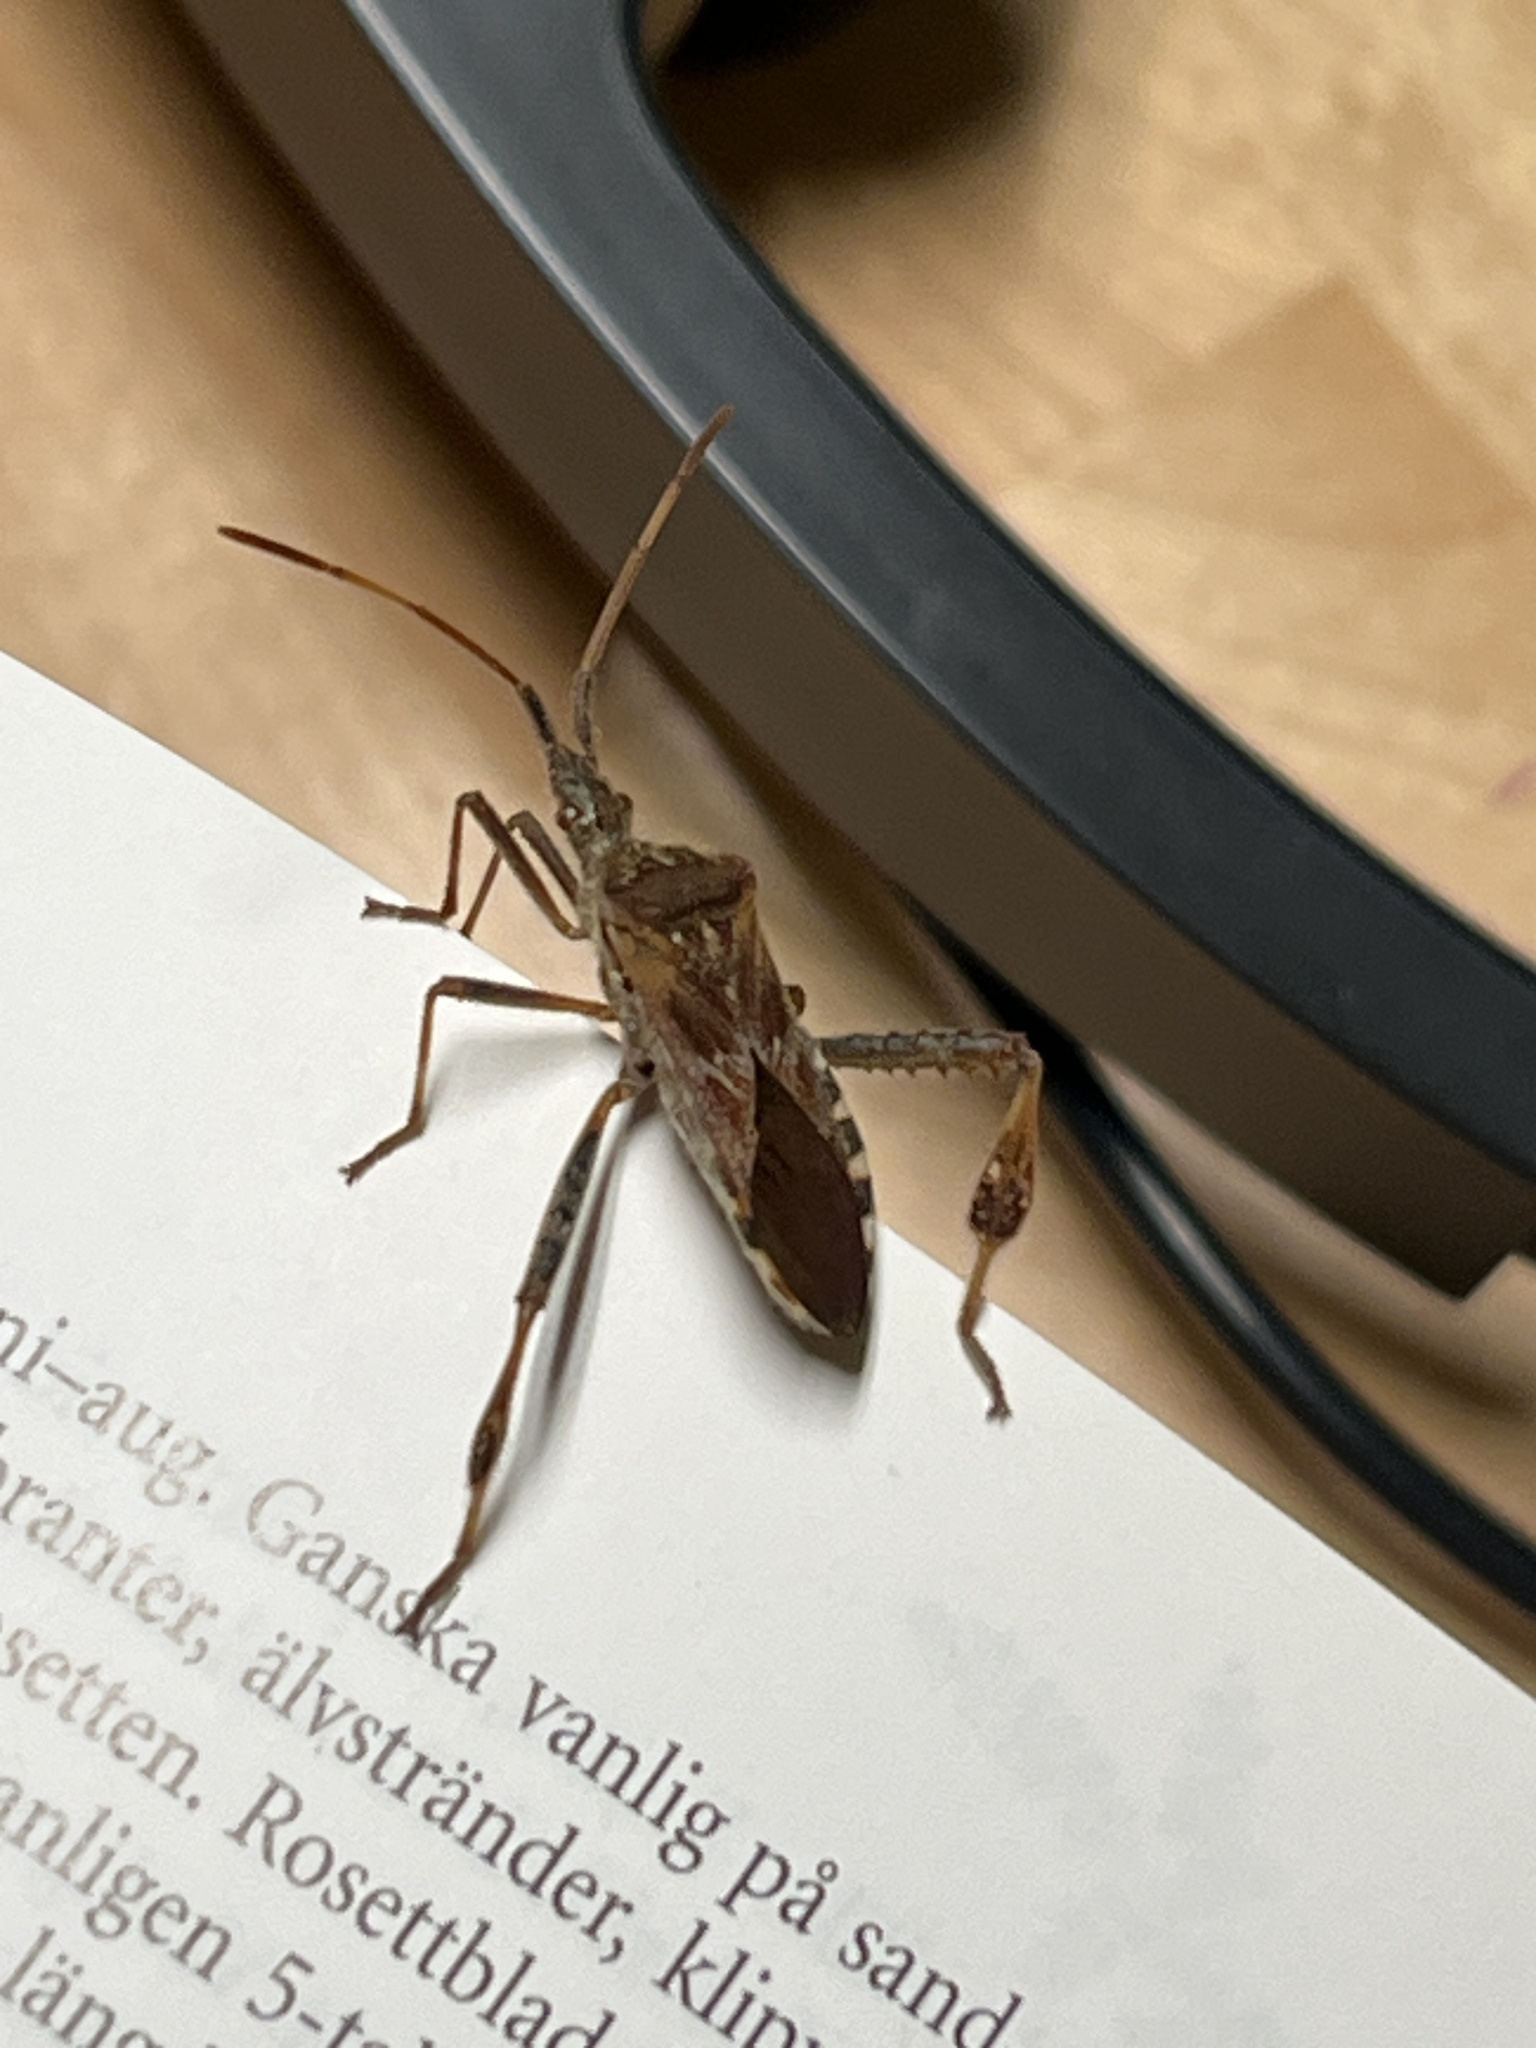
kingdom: Animalia
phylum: Arthropoda
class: Insecta
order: Hemiptera
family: Coreidae
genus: Leptoglossus
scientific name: Leptoglossus occidentalis
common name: Western conifer-seed bug
